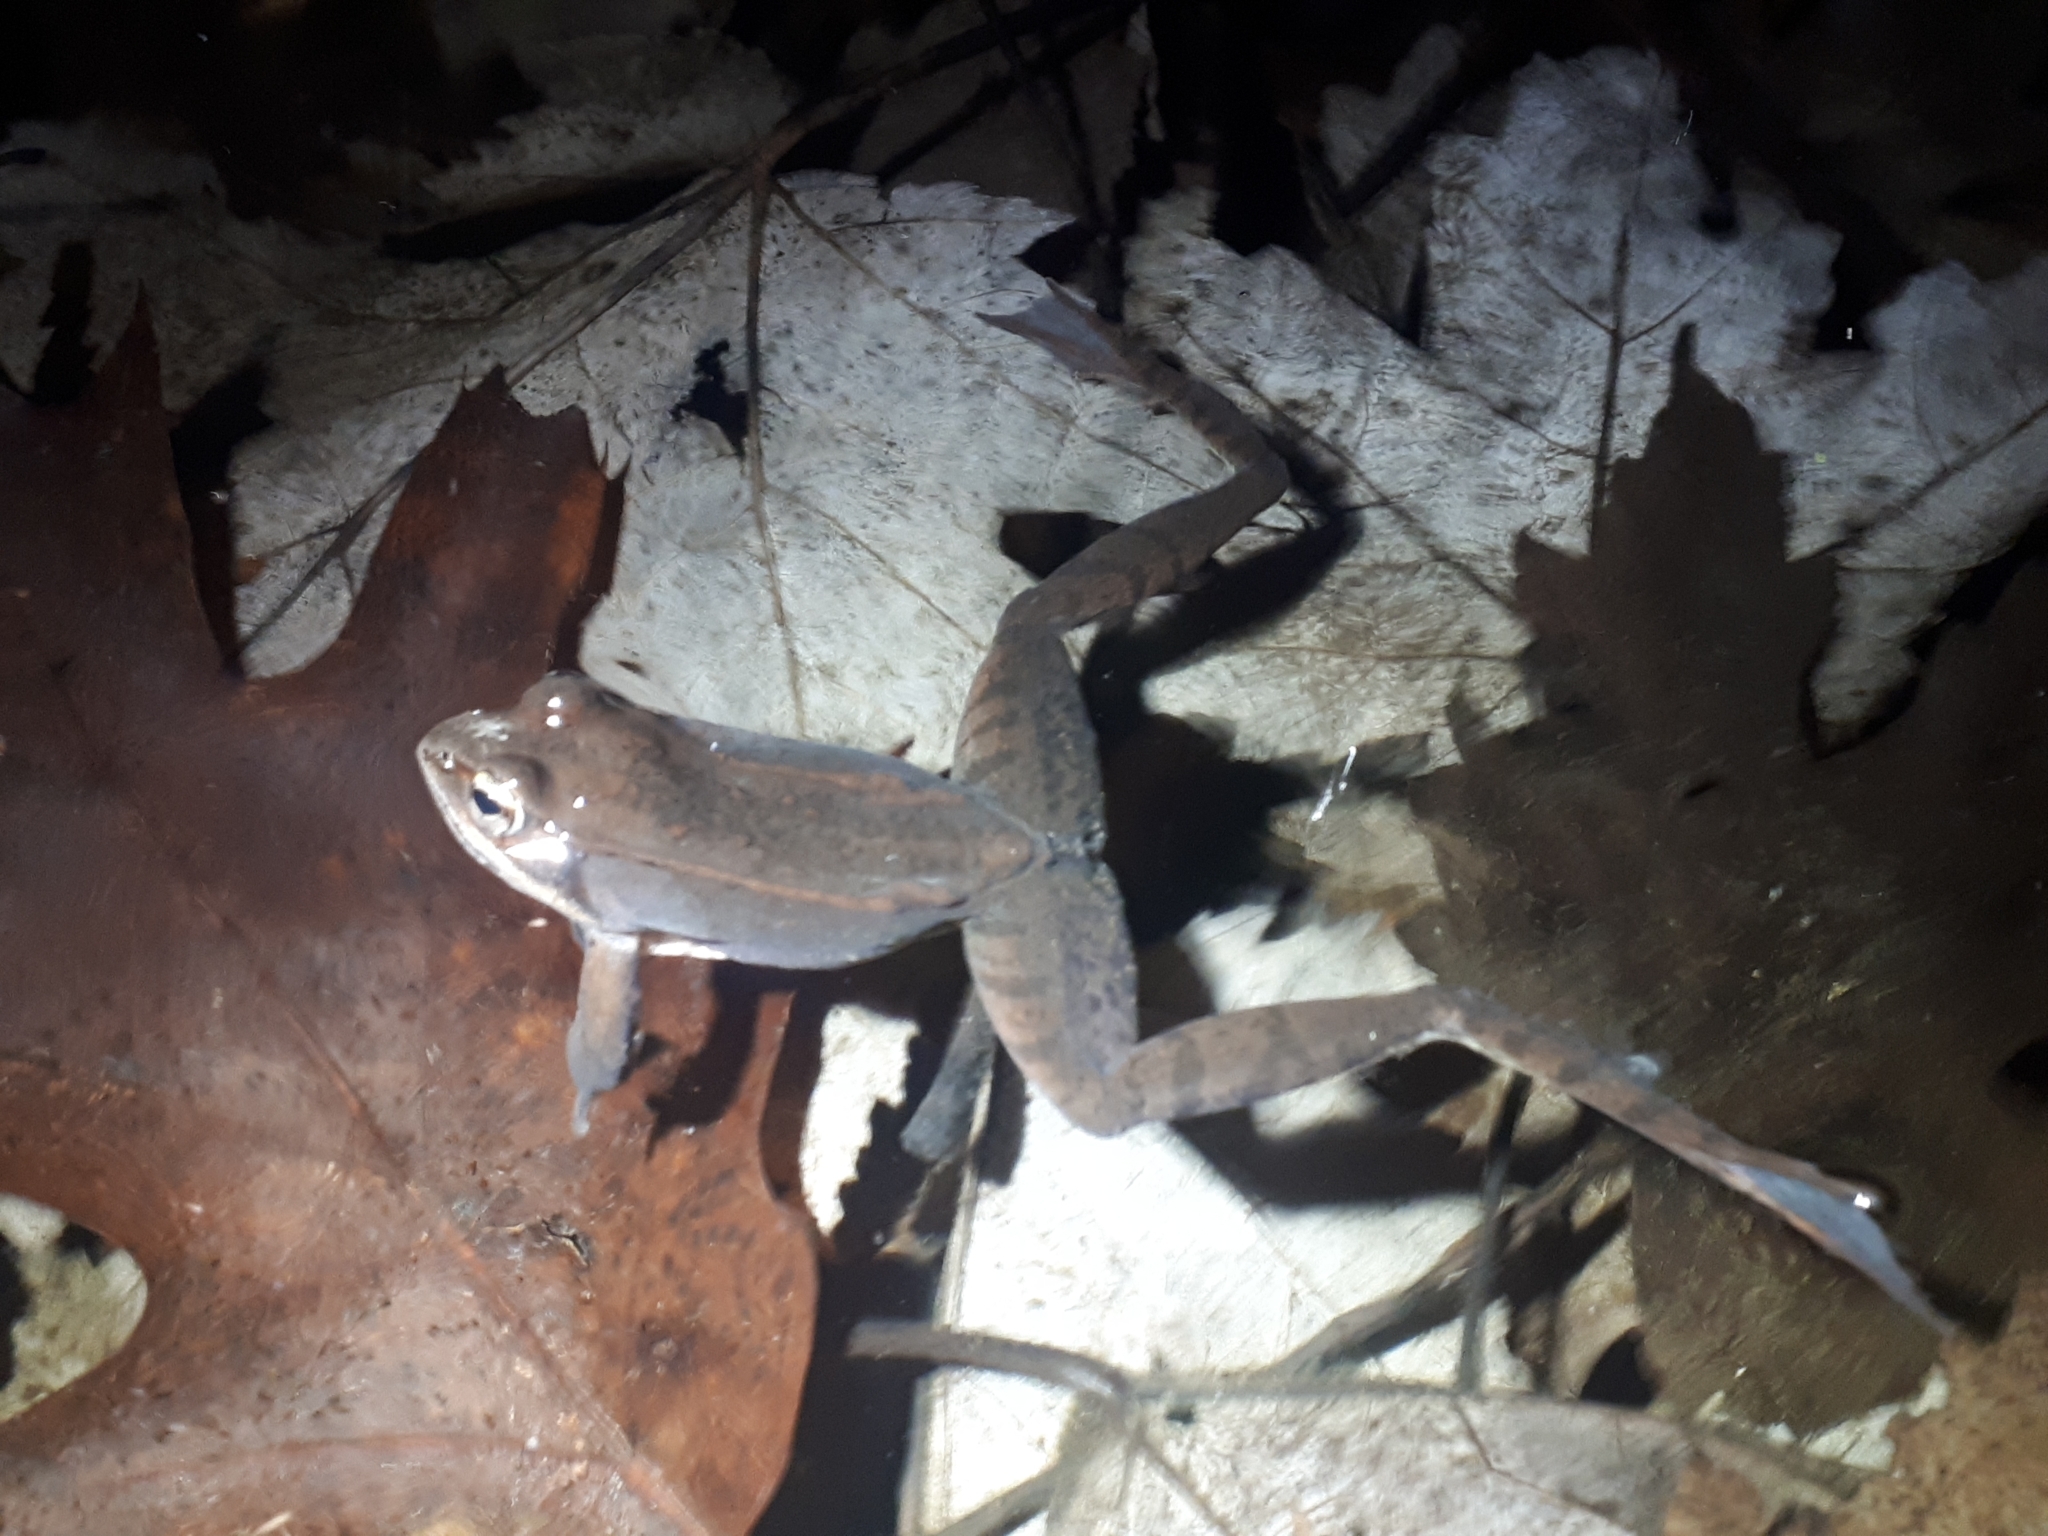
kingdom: Animalia
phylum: Chordata
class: Amphibia
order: Anura
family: Ranidae
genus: Lithobates
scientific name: Lithobates sylvaticus
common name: Wood frog
